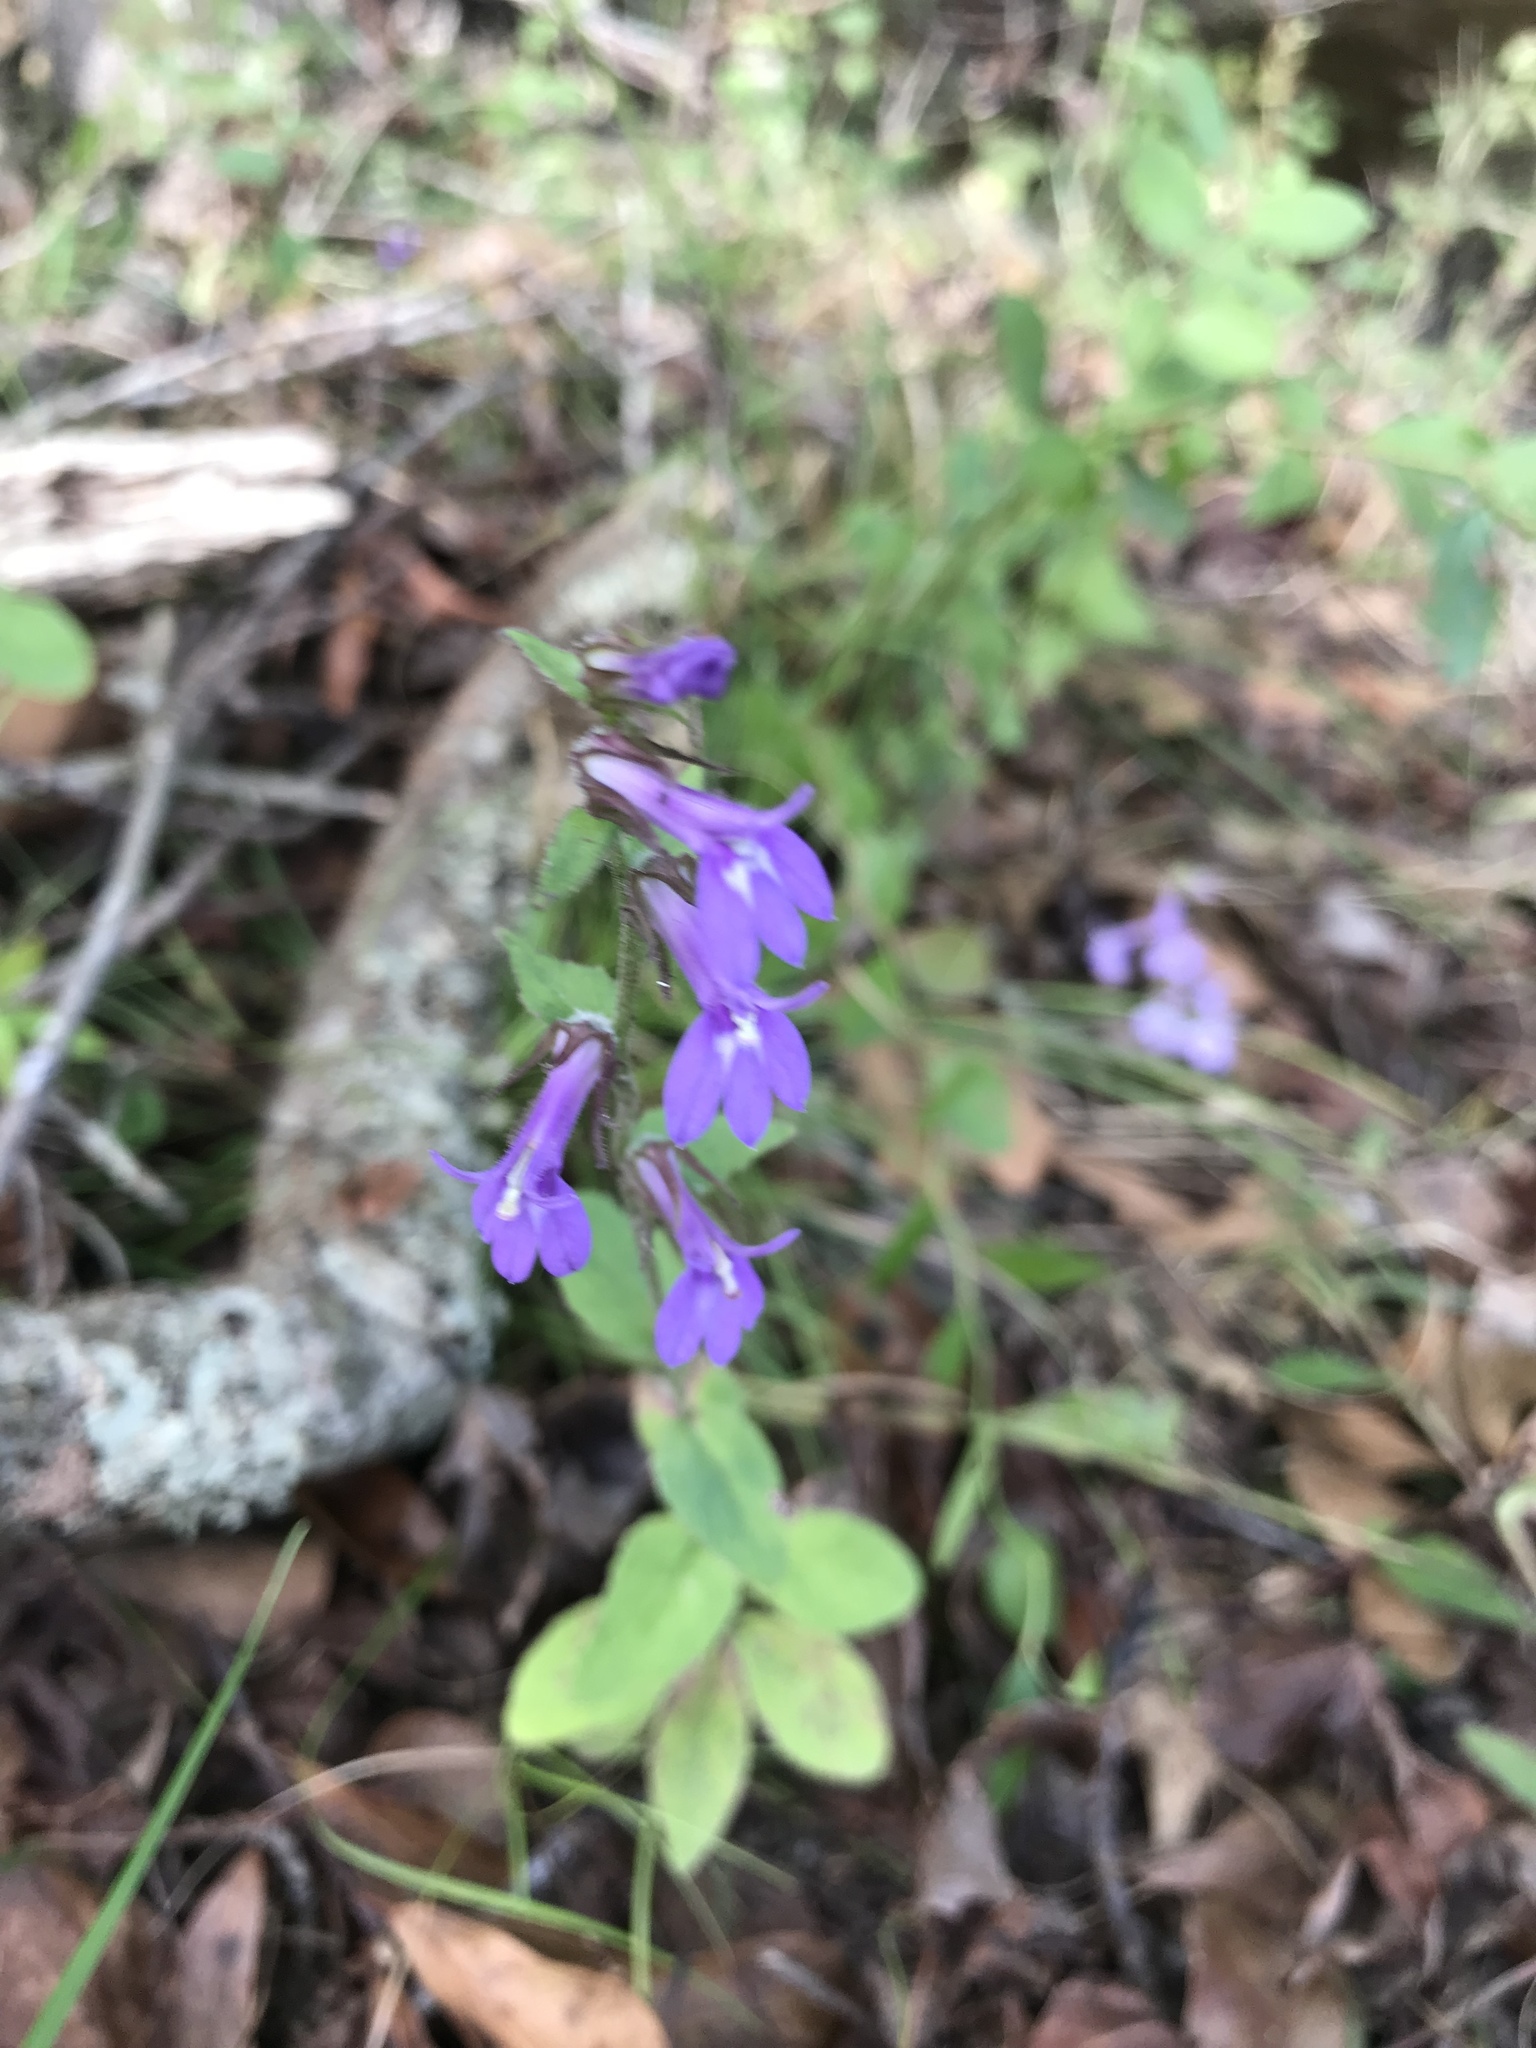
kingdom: Plantae
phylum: Tracheophyta
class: Magnoliopsida
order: Asterales
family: Campanulaceae
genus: Lobelia
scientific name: Lobelia puberula
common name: Purple dewdrop
